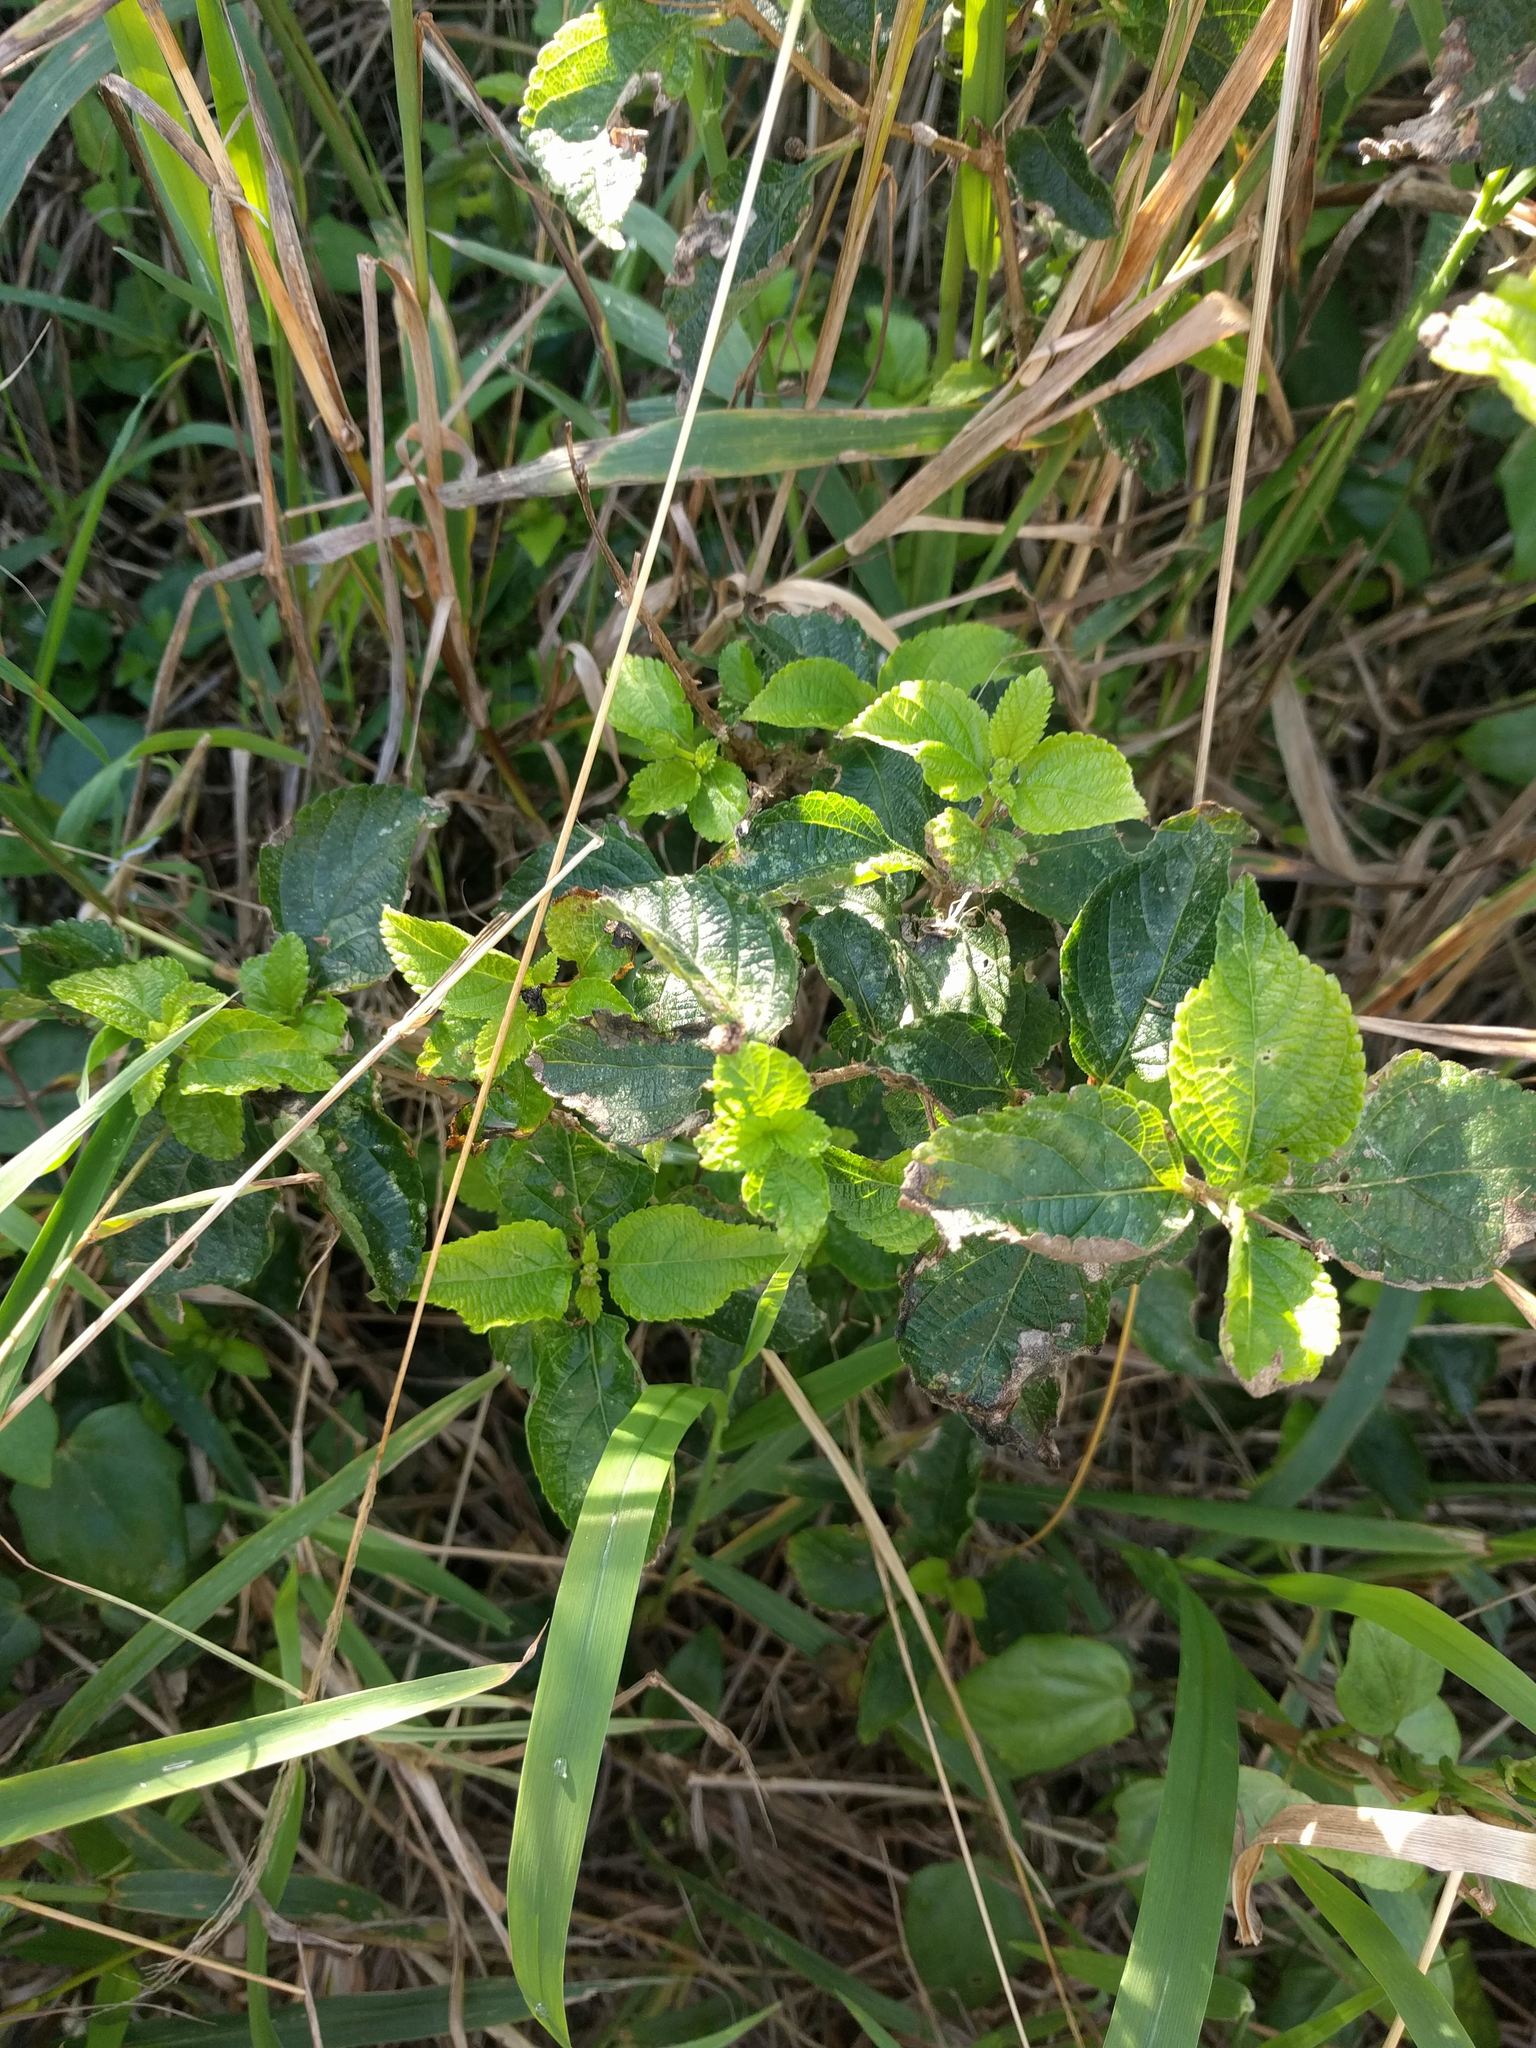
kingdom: Plantae
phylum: Tracheophyta
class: Magnoliopsida
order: Lamiales
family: Verbenaceae
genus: Lantana
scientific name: Lantana camara
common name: Lantana
